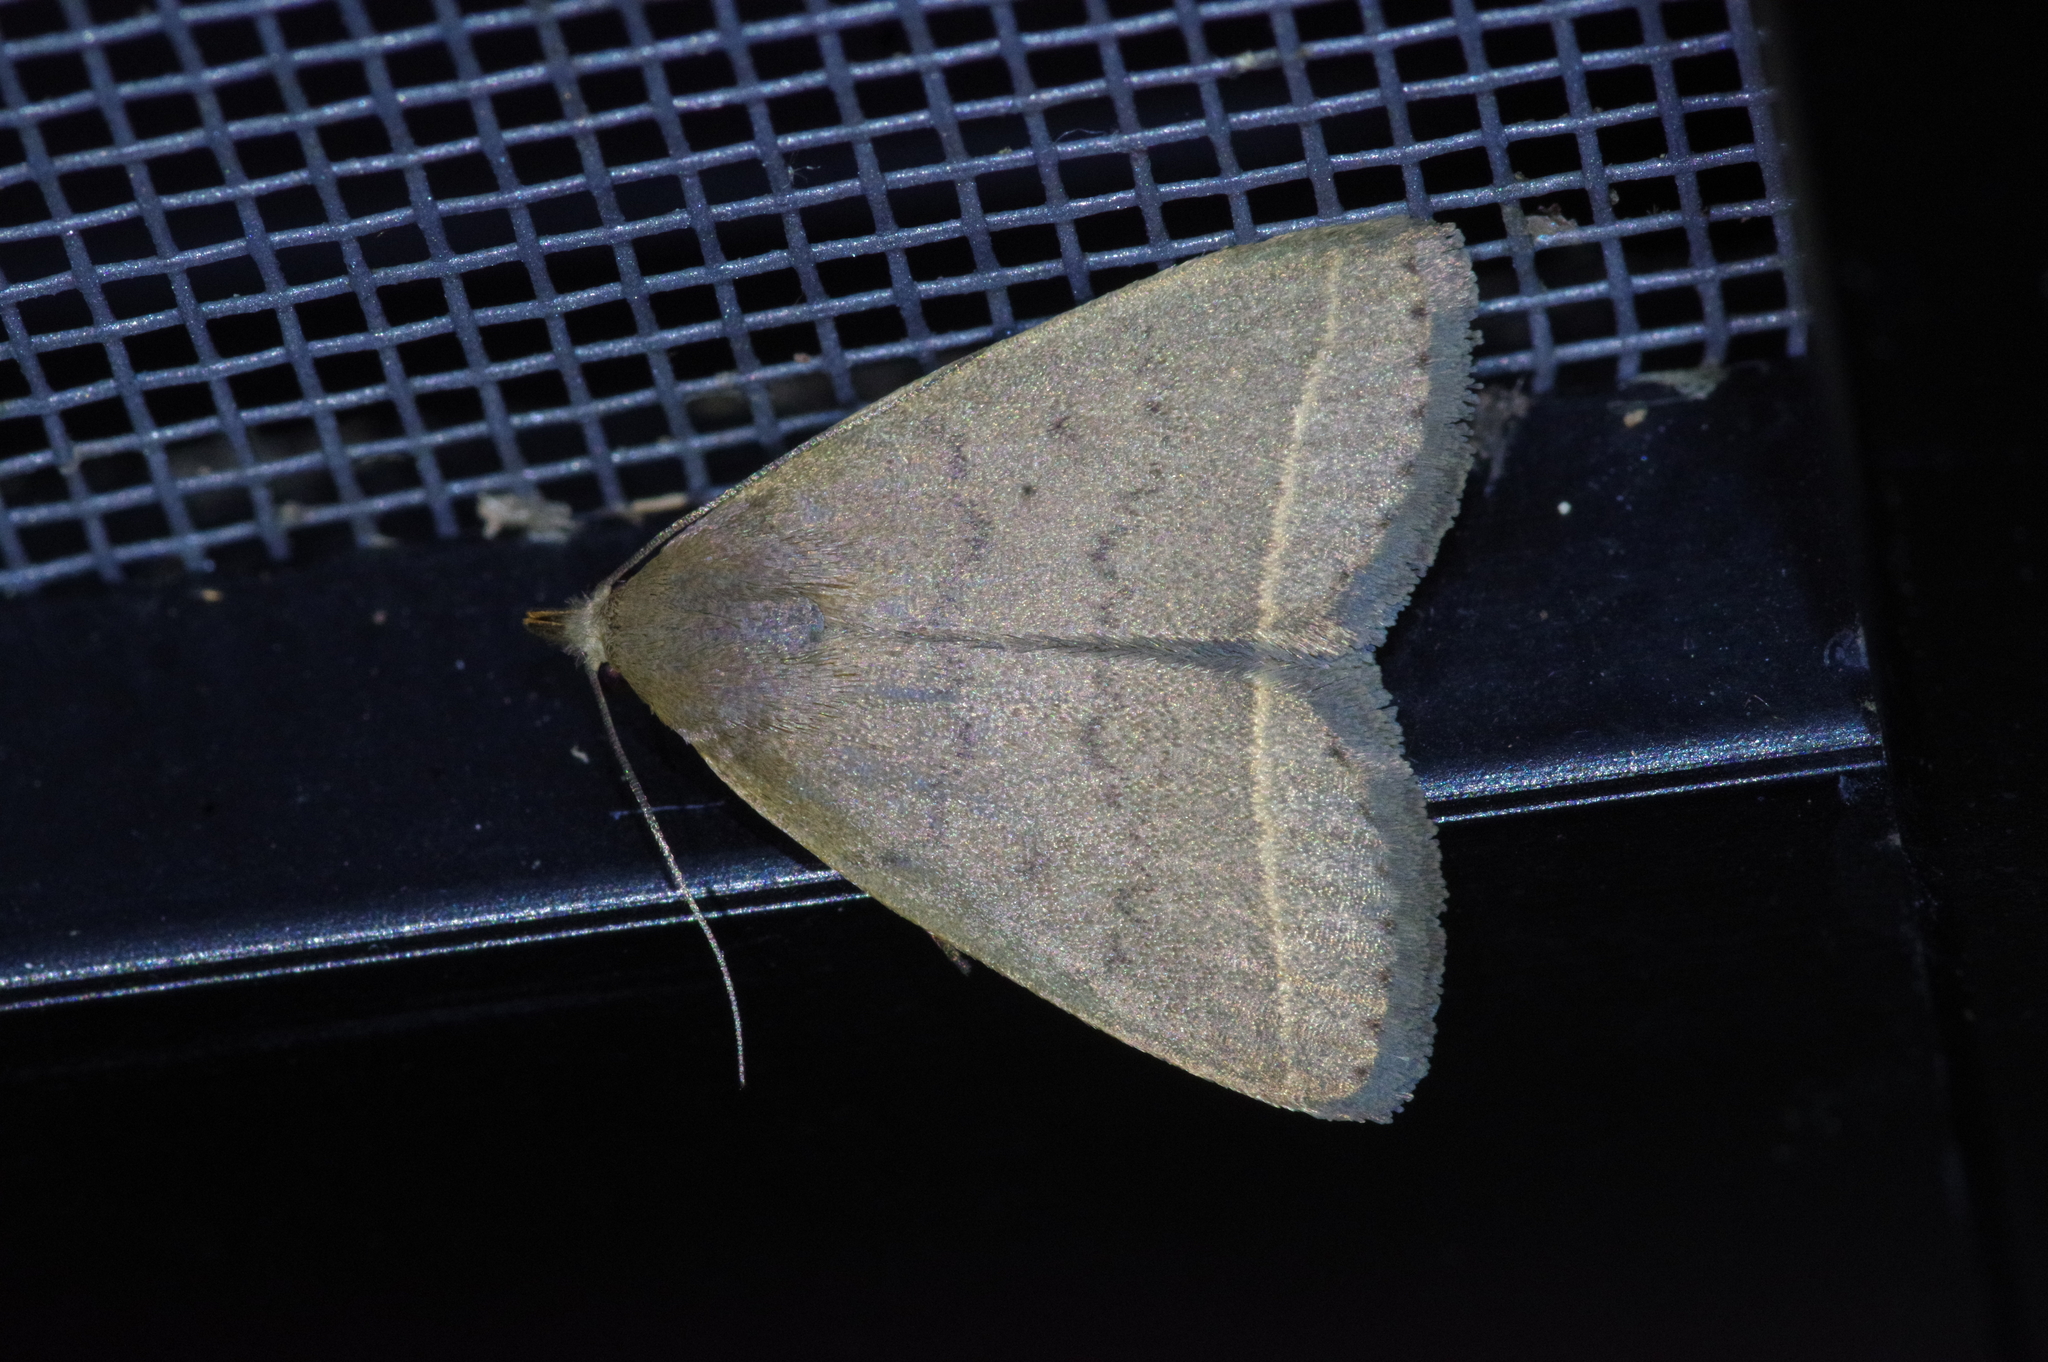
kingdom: Animalia
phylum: Arthropoda
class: Insecta
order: Lepidoptera
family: Erebidae
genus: Simplicia
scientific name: Simplicia xanthoma
